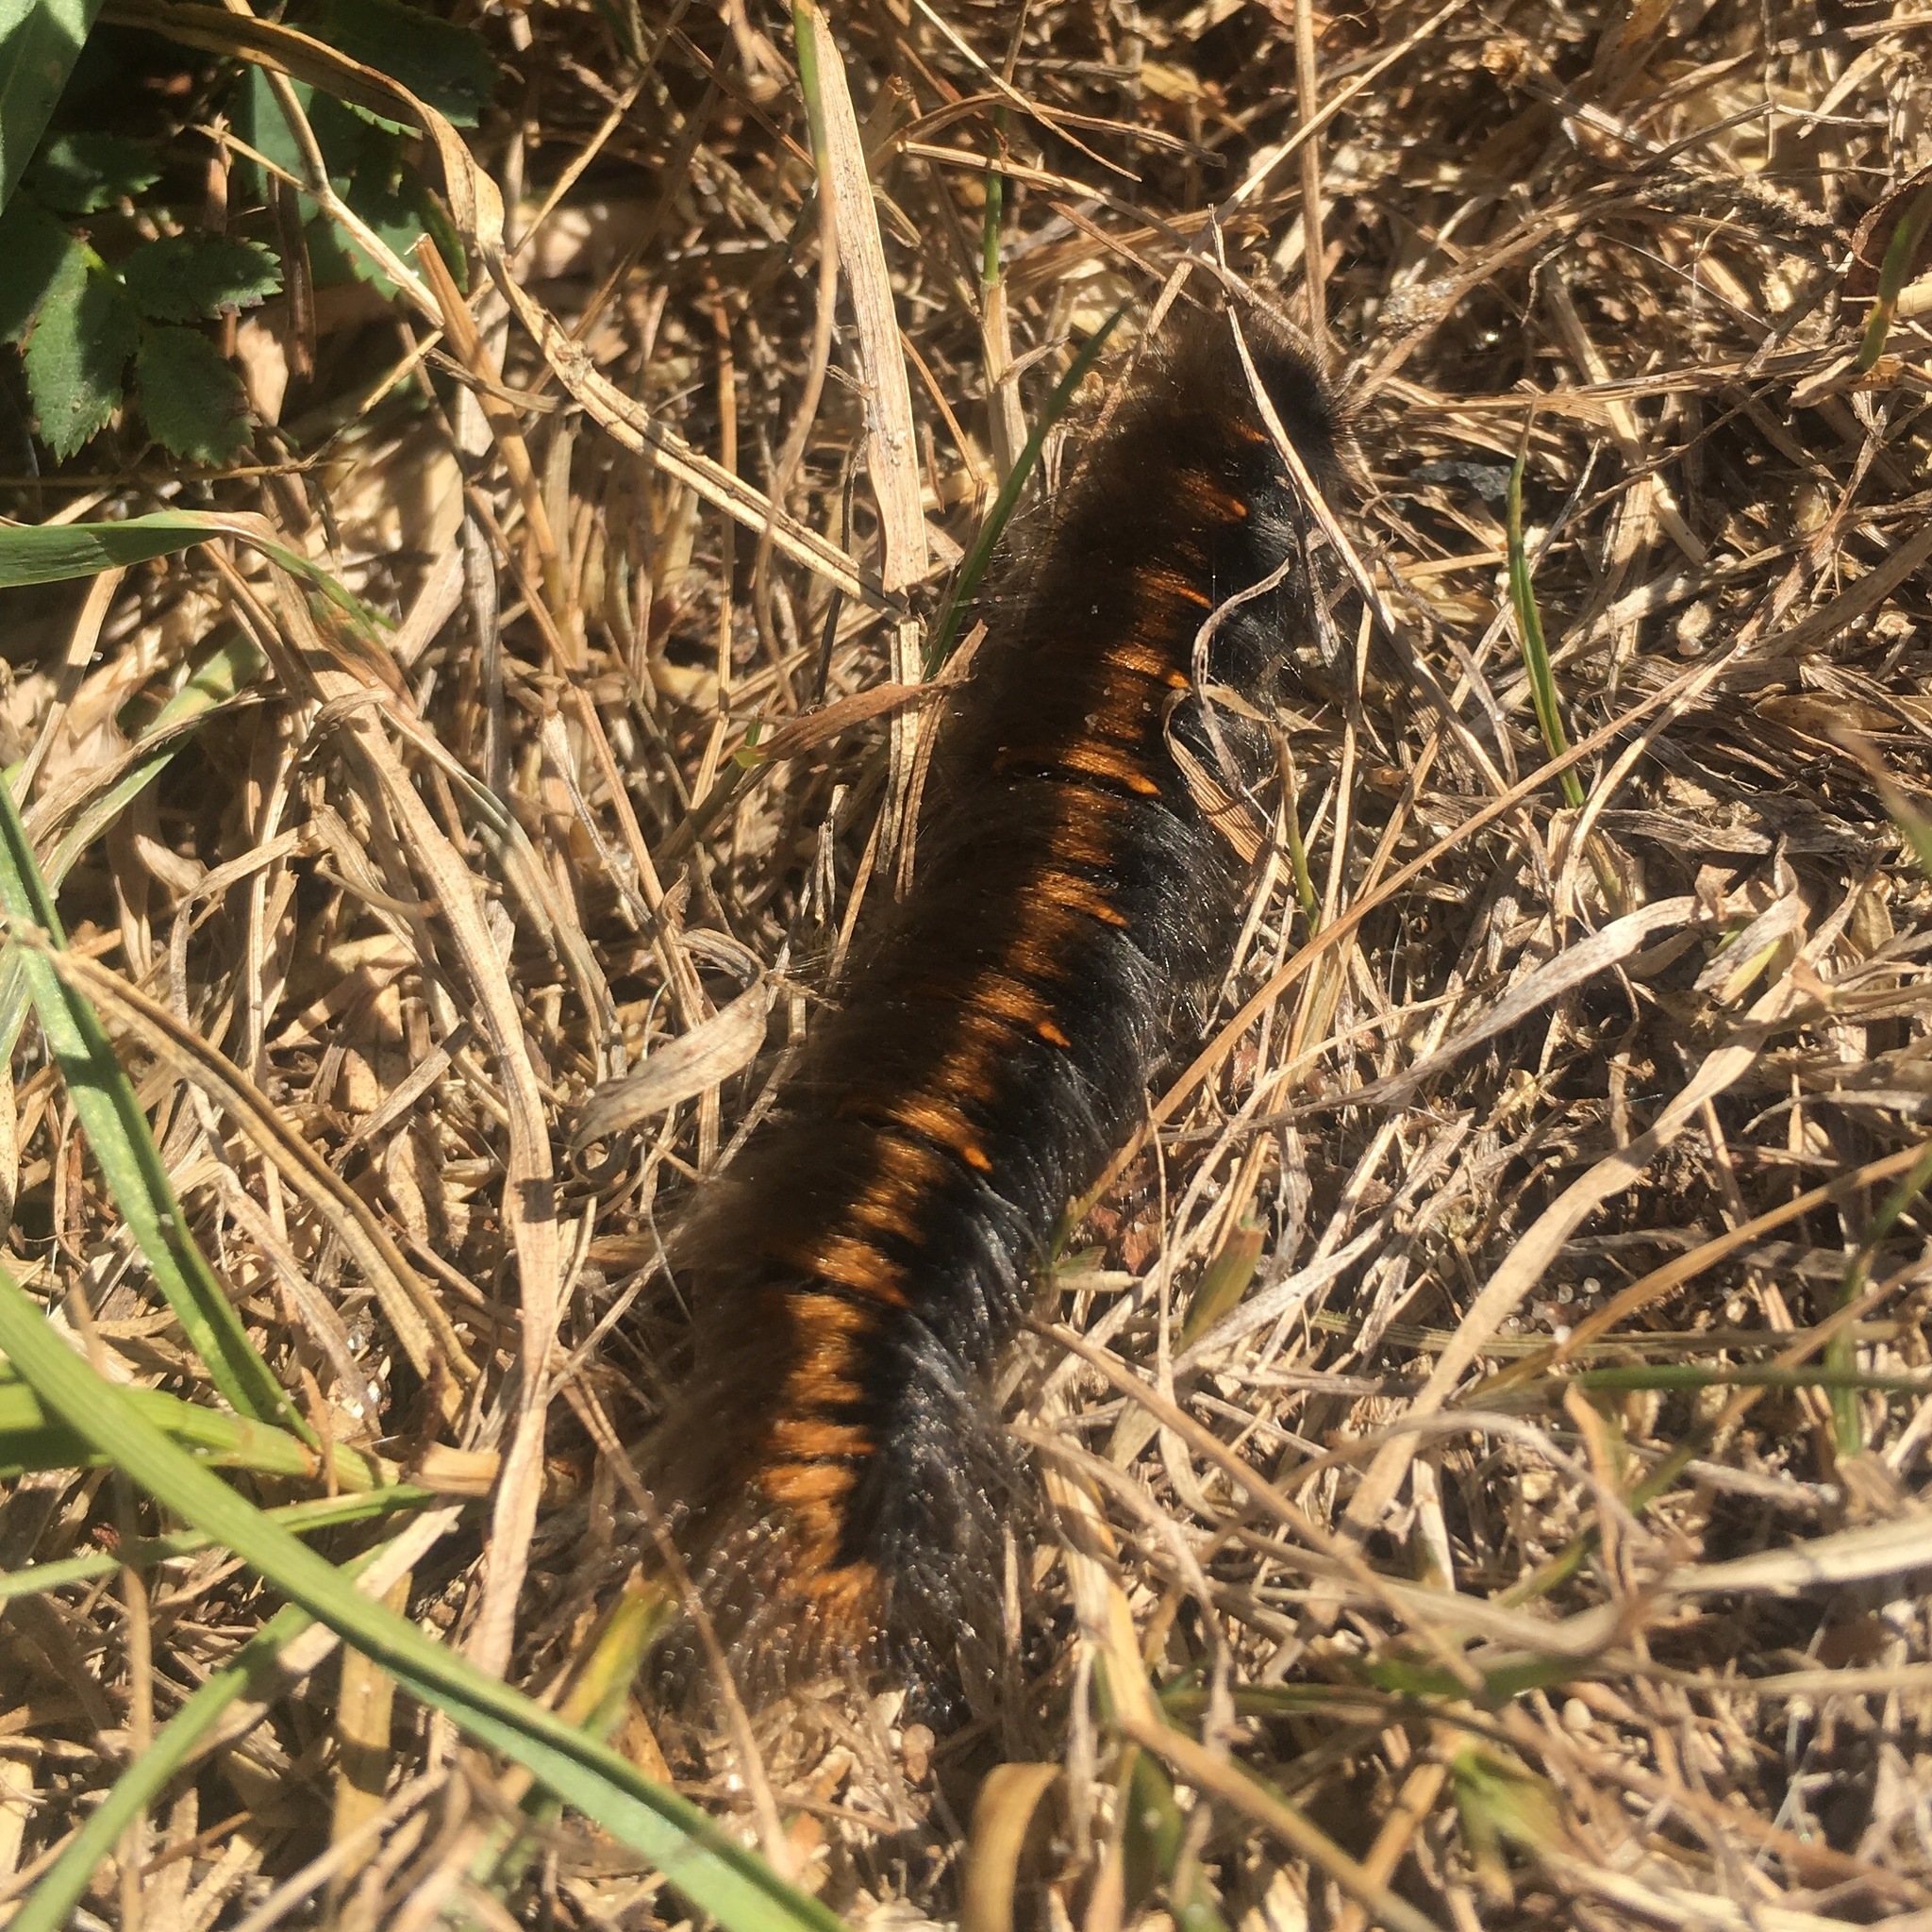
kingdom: Animalia
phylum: Arthropoda
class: Insecta
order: Lepidoptera
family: Lasiocampidae
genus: Macrothylacia
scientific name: Macrothylacia rubi
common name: Fox moth
